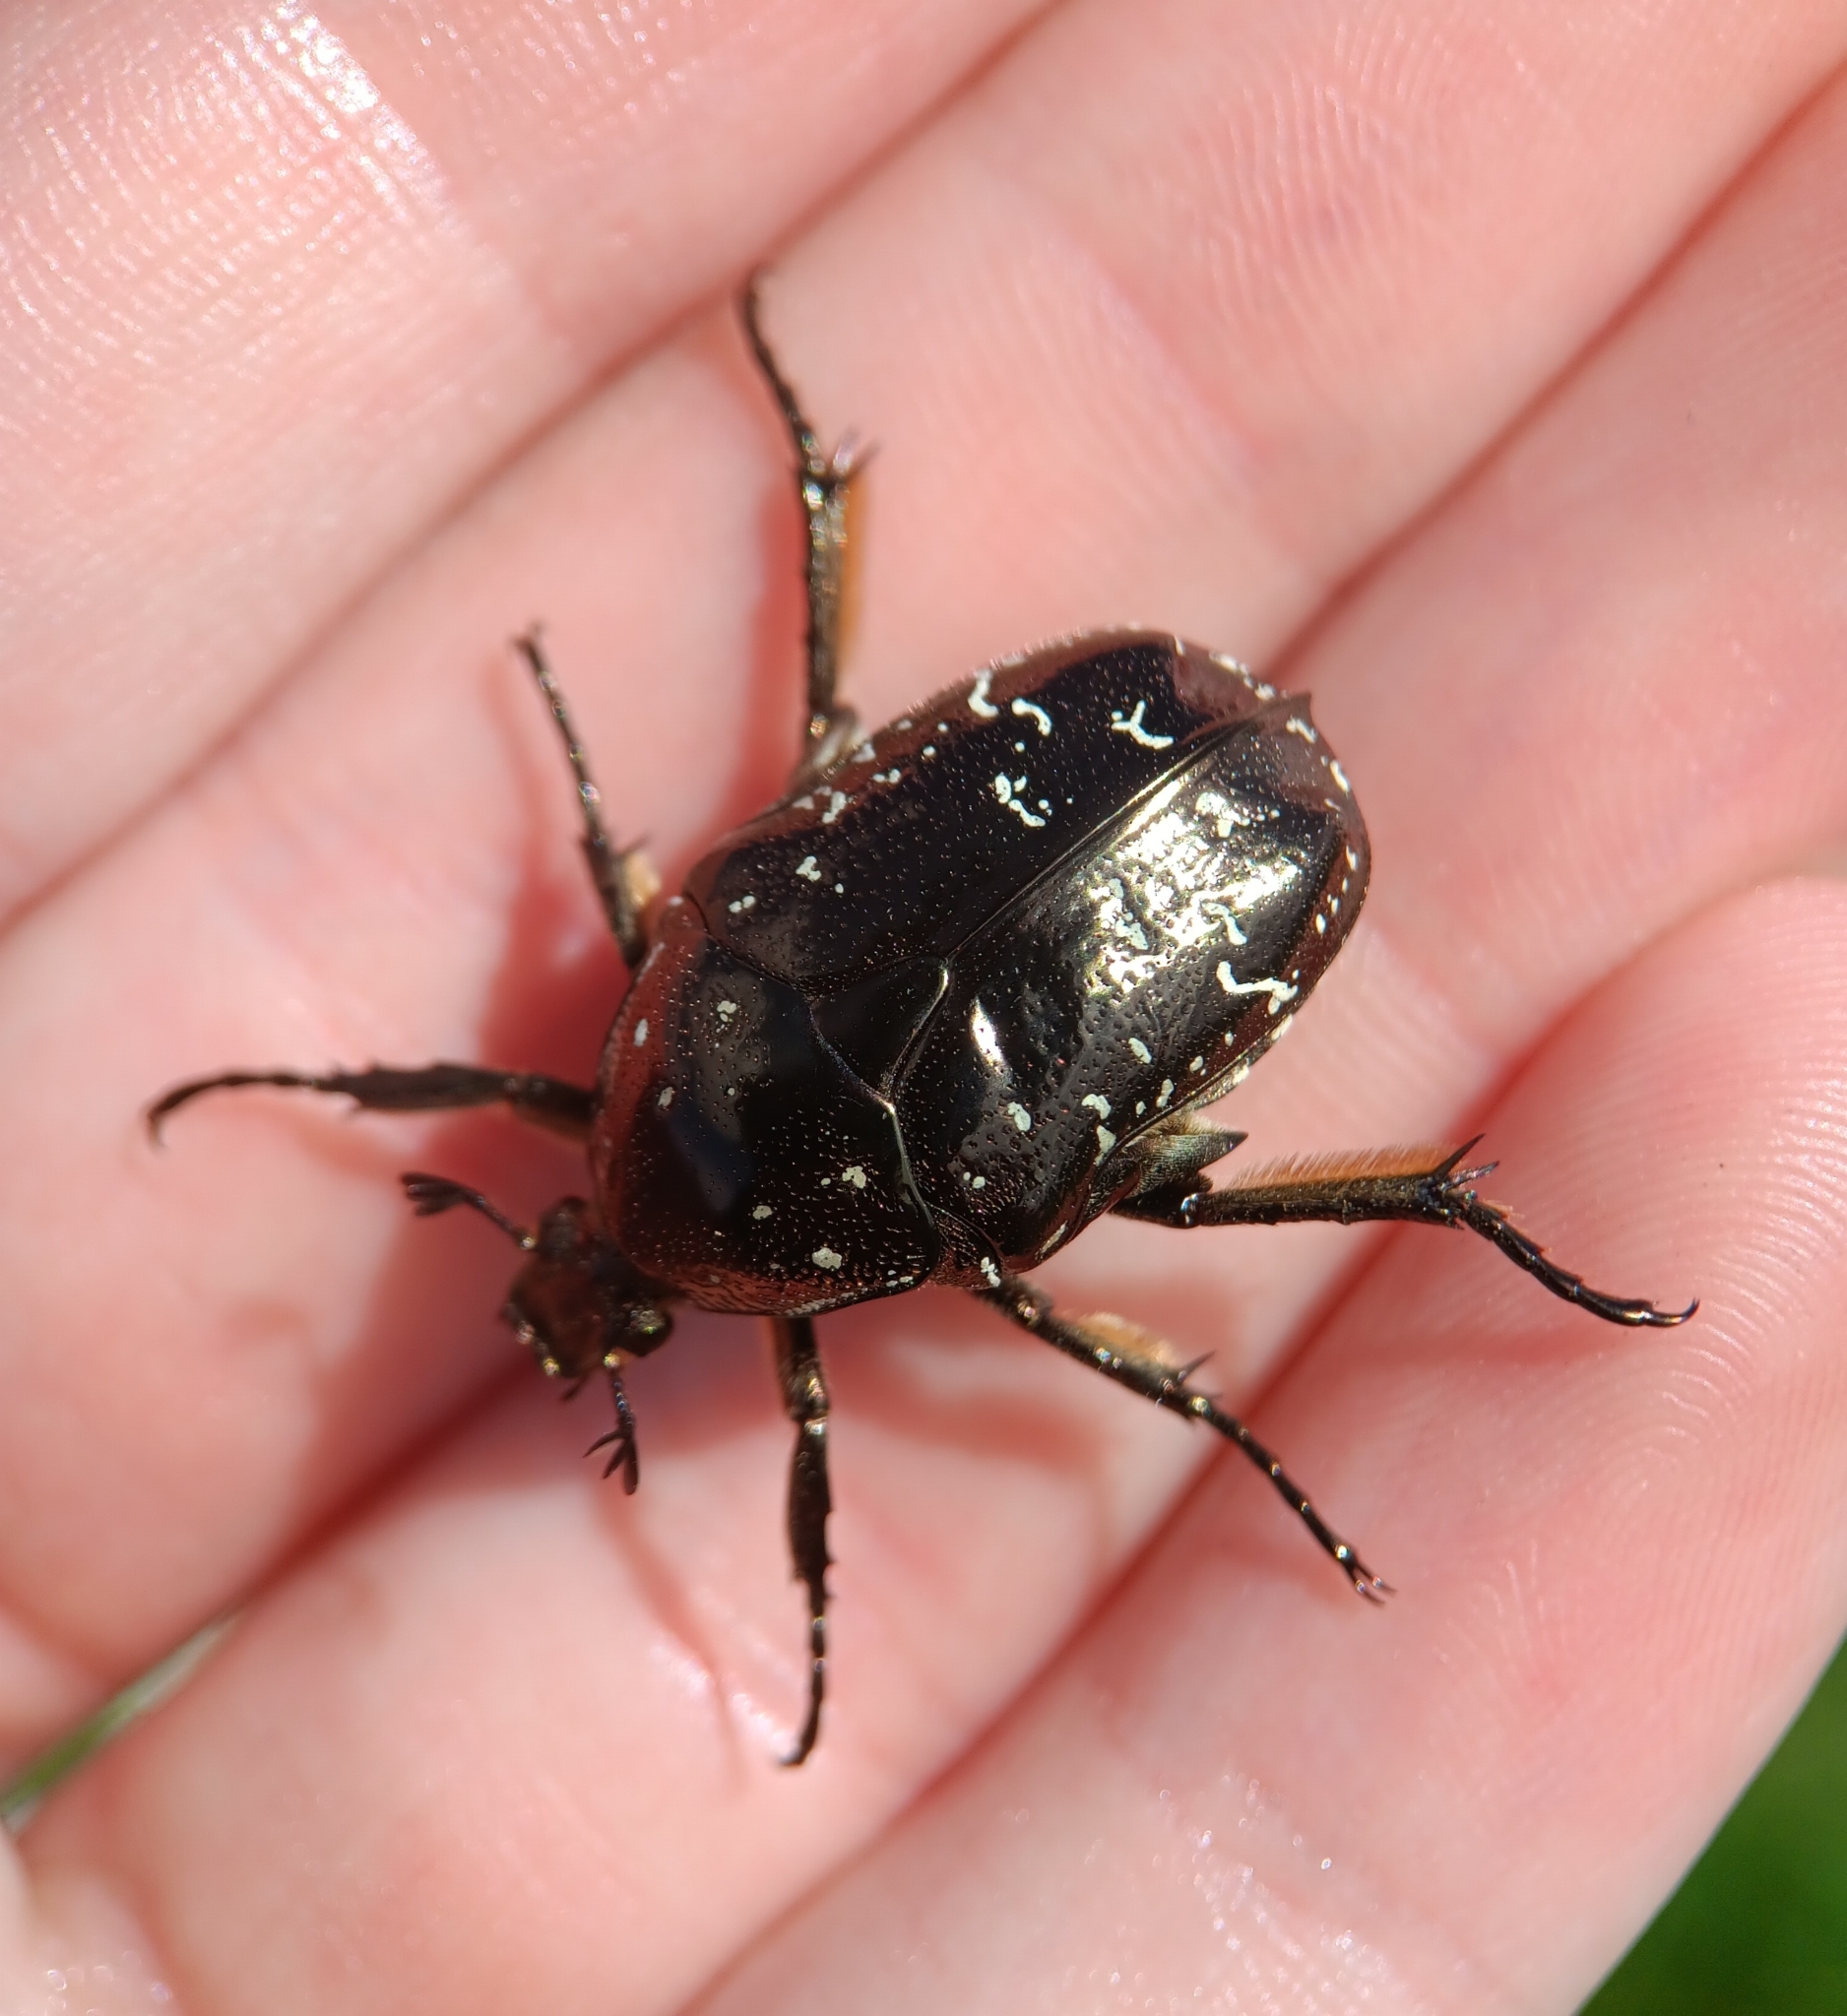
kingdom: Animalia
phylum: Arthropoda
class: Insecta
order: Coleoptera
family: Scarabaeidae
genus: Protaetia
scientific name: Protaetia orientalis
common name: Oriental flower beetle
